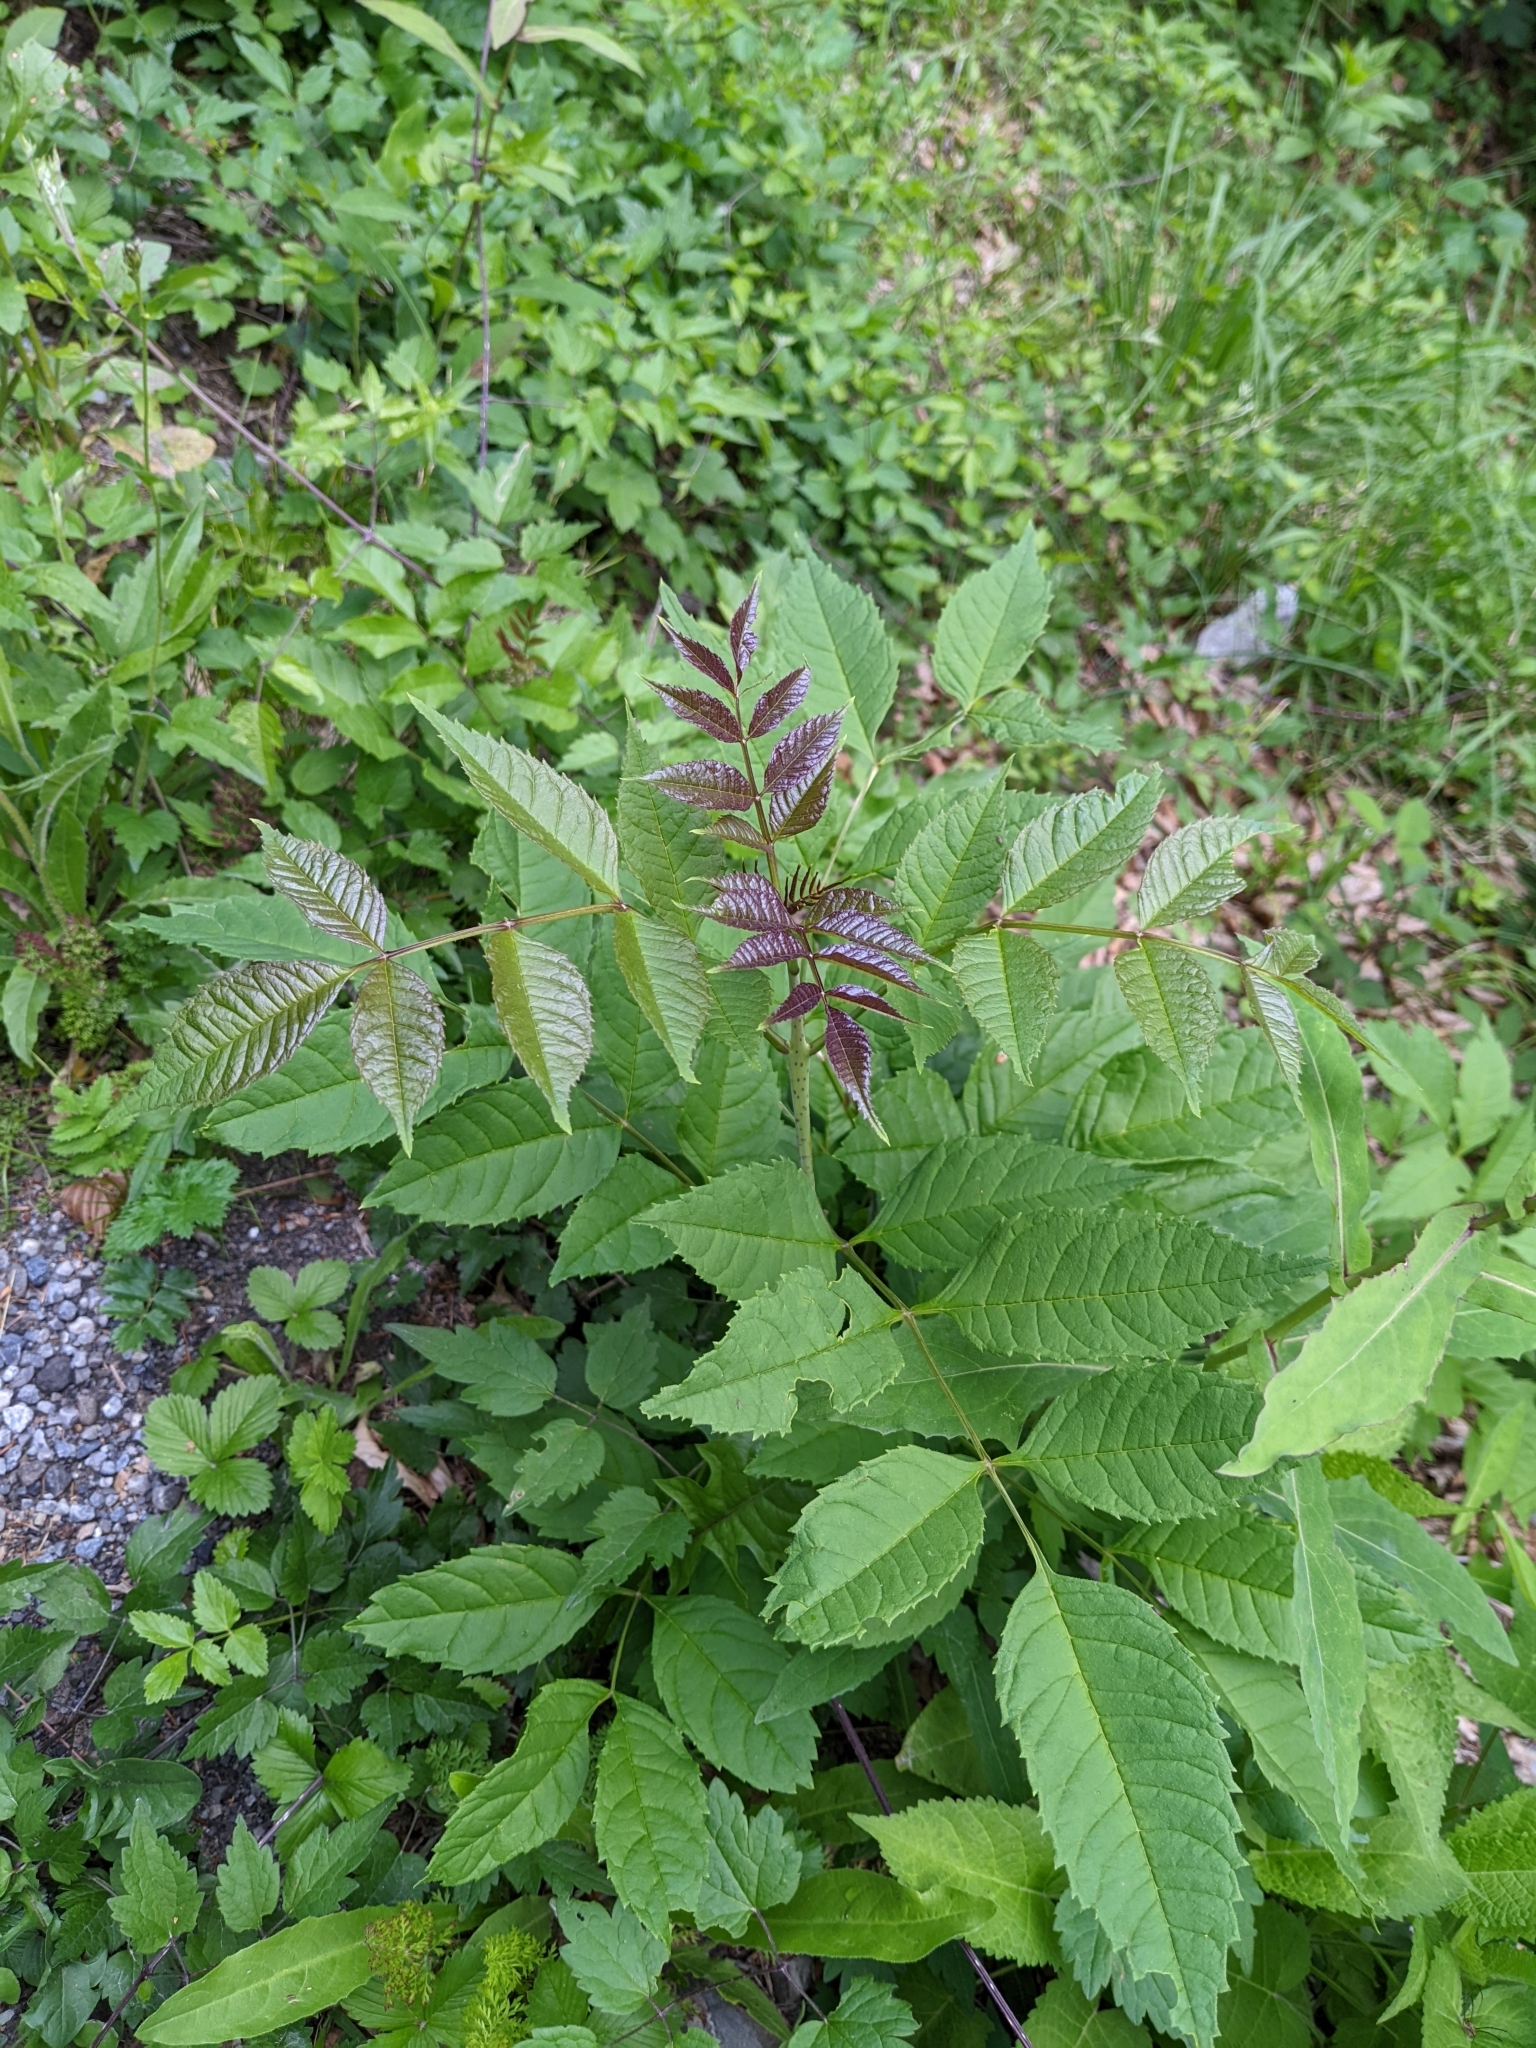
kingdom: Plantae
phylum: Tracheophyta
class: Magnoliopsida
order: Lamiales
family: Oleaceae
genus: Fraxinus
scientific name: Fraxinus excelsior
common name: European ash
